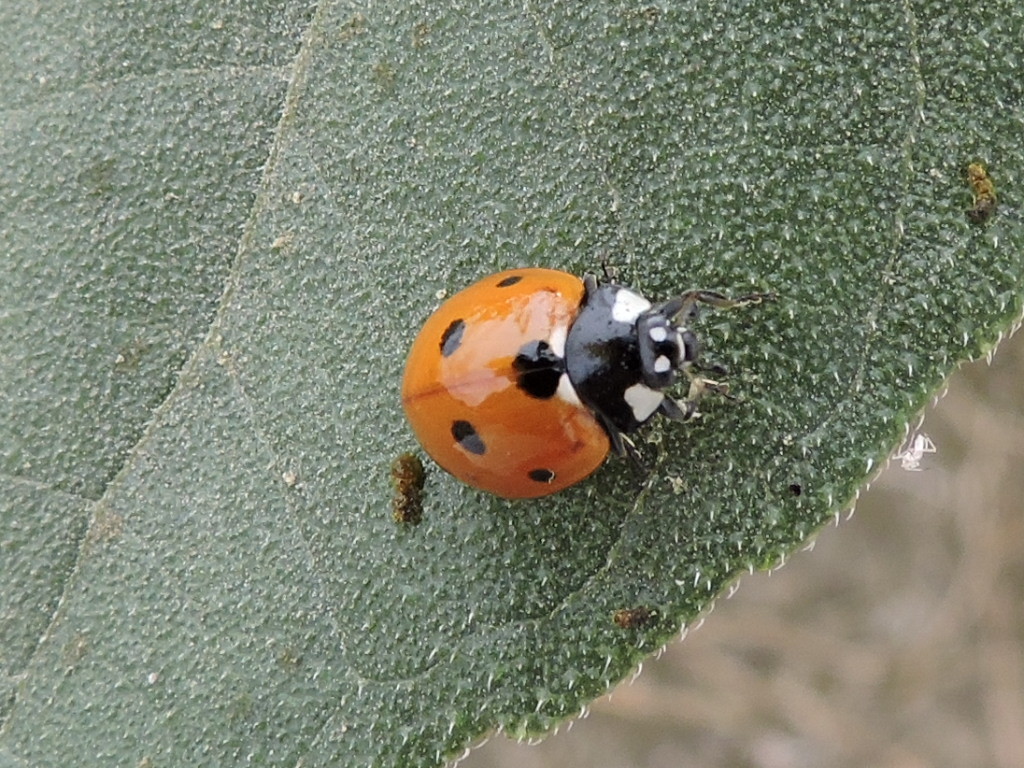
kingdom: Animalia
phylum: Arthropoda
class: Insecta
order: Coleoptera
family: Coccinellidae
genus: Coccinella
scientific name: Coccinella septempunctata
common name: Sevenspotted lady beetle
